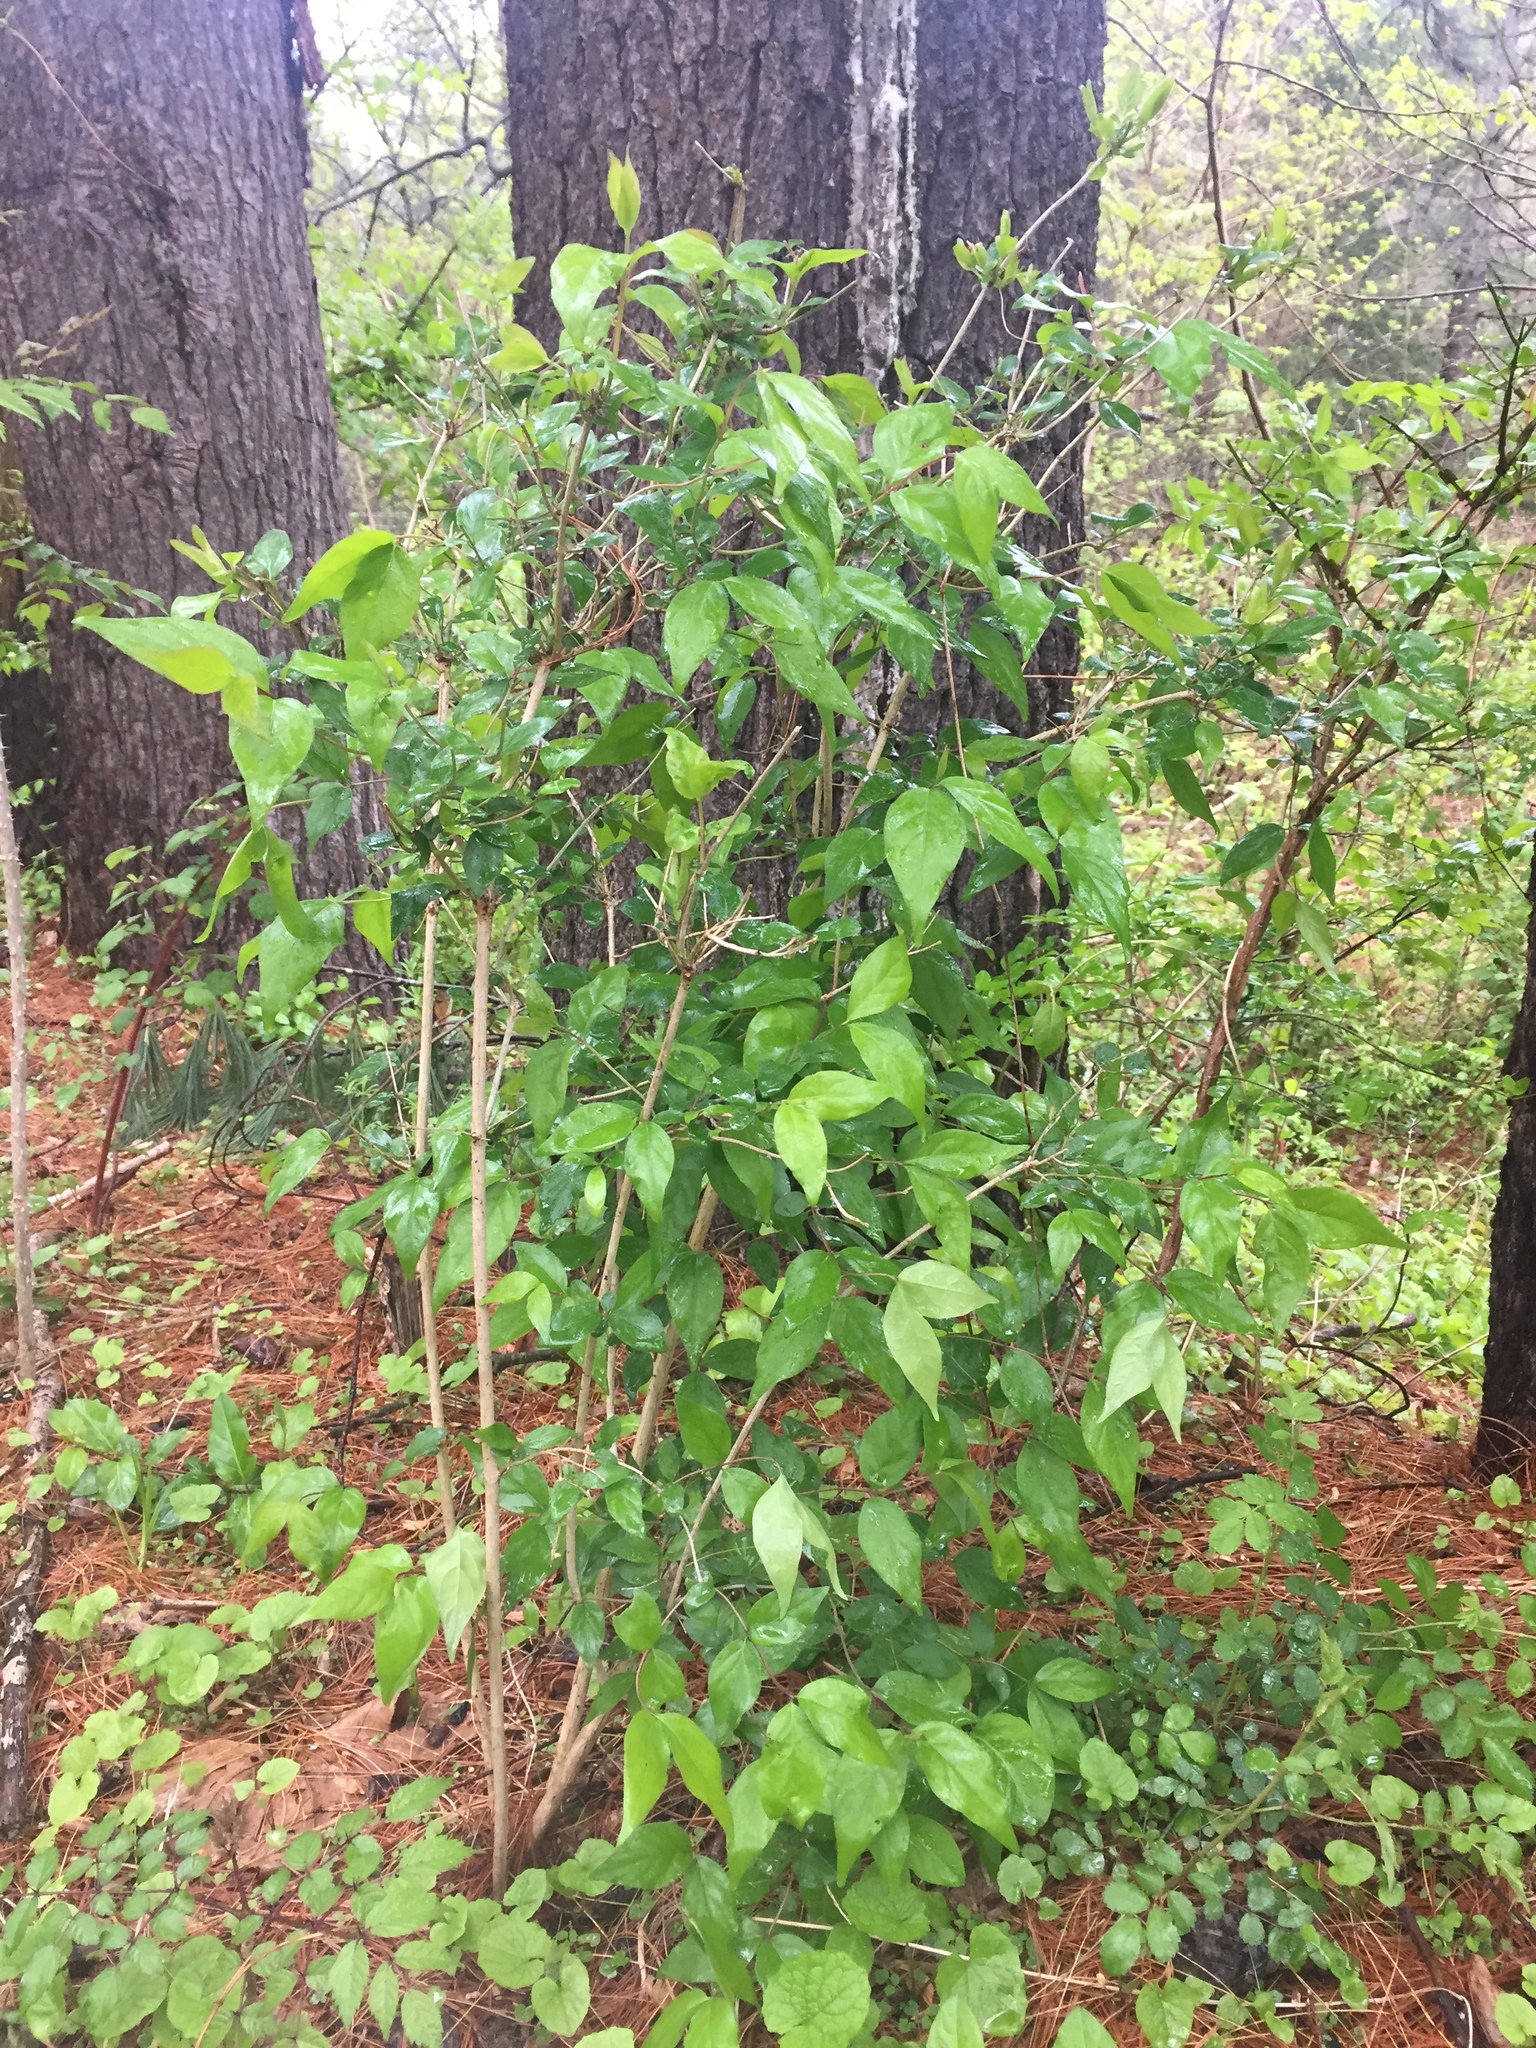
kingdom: Plantae
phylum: Tracheophyta
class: Magnoliopsida
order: Dipsacales
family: Caprifoliaceae
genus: Lonicera
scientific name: Lonicera maackii
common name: Amur honeysuckle
